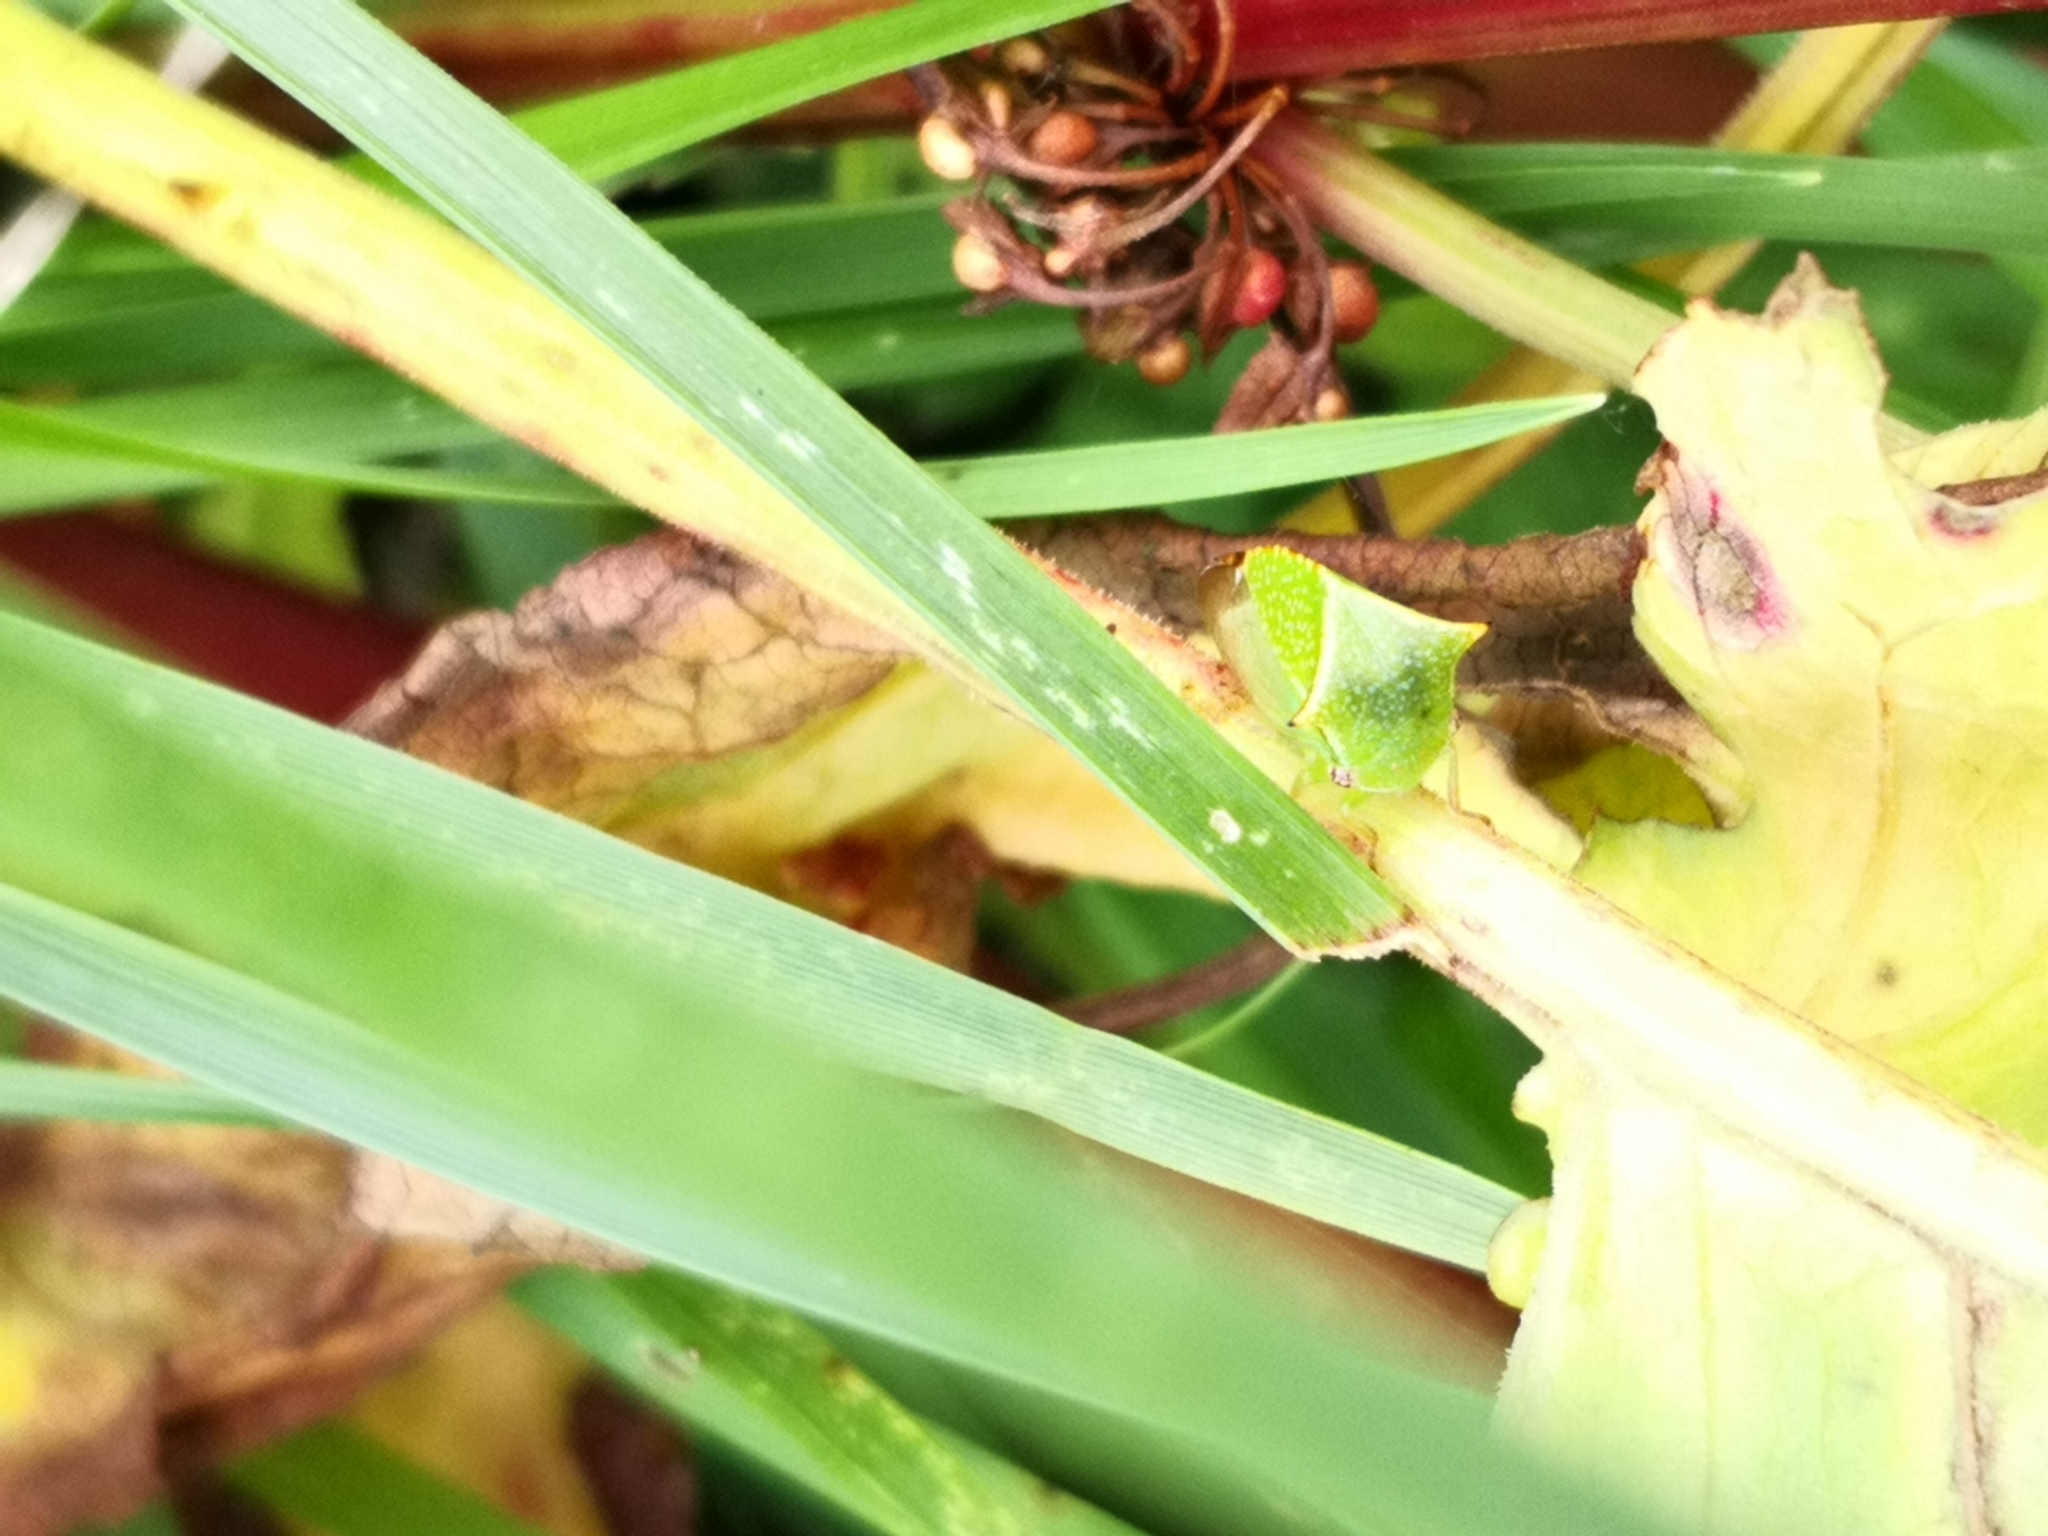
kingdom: Animalia
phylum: Arthropoda
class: Insecta
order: Hemiptera
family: Membracidae
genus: Stictocephala
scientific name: Stictocephala bisonia
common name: American buffalo treehopper
